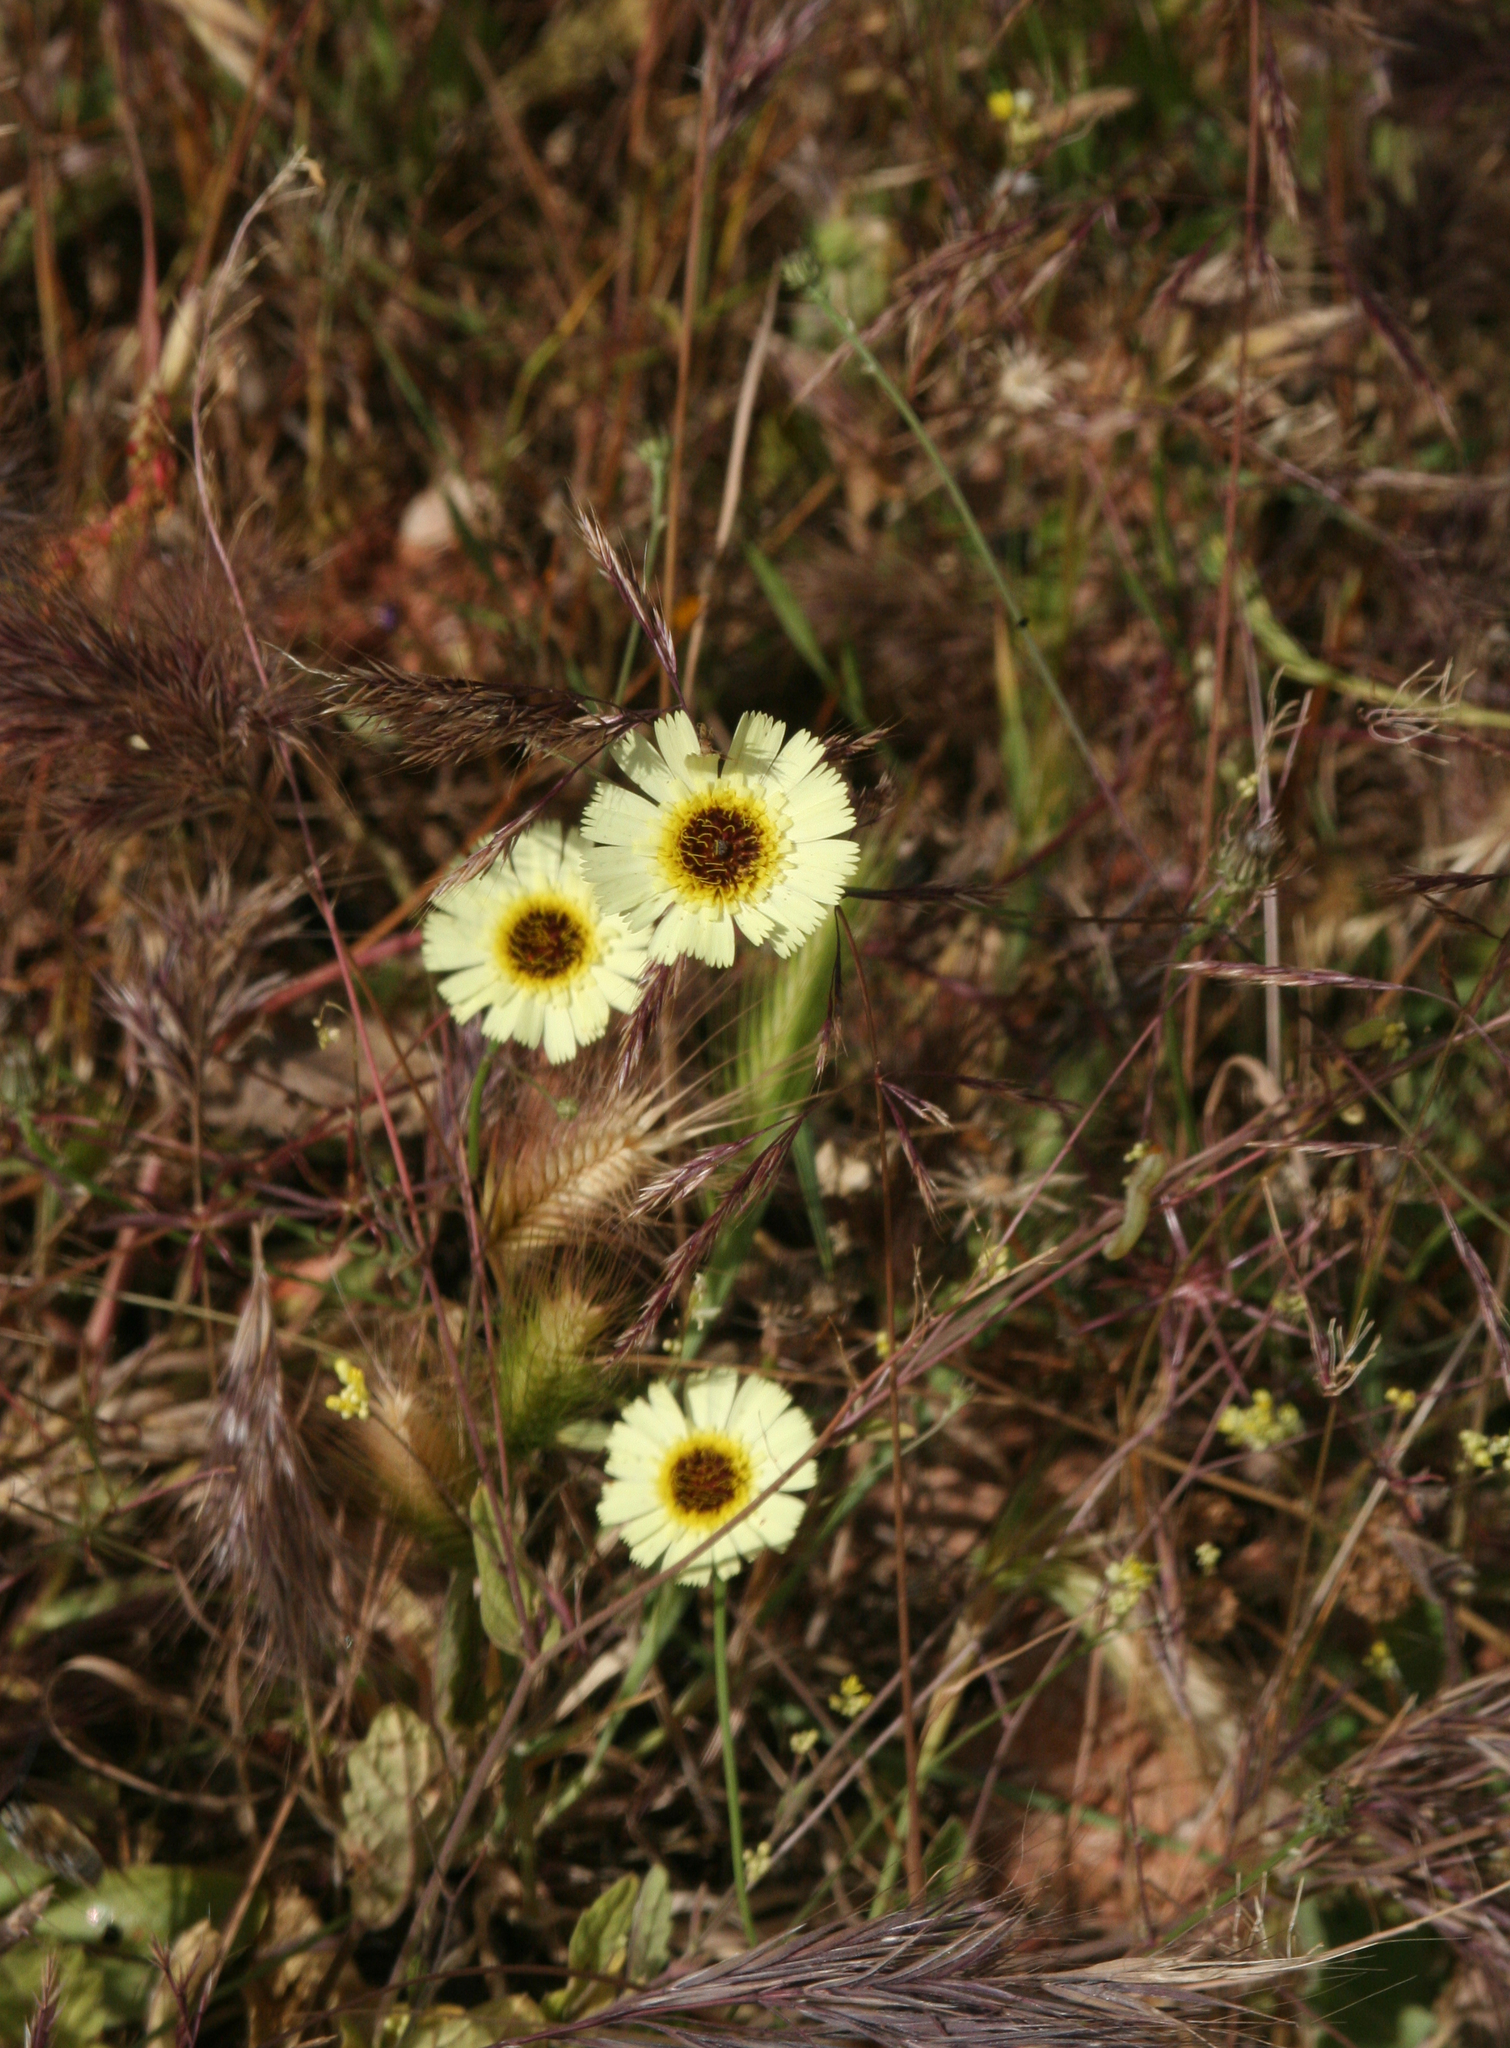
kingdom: Plantae
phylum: Tracheophyta
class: Magnoliopsida
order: Asterales
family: Asteraceae
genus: Tolpis
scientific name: Tolpis barbata
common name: Yellow hawkweed
